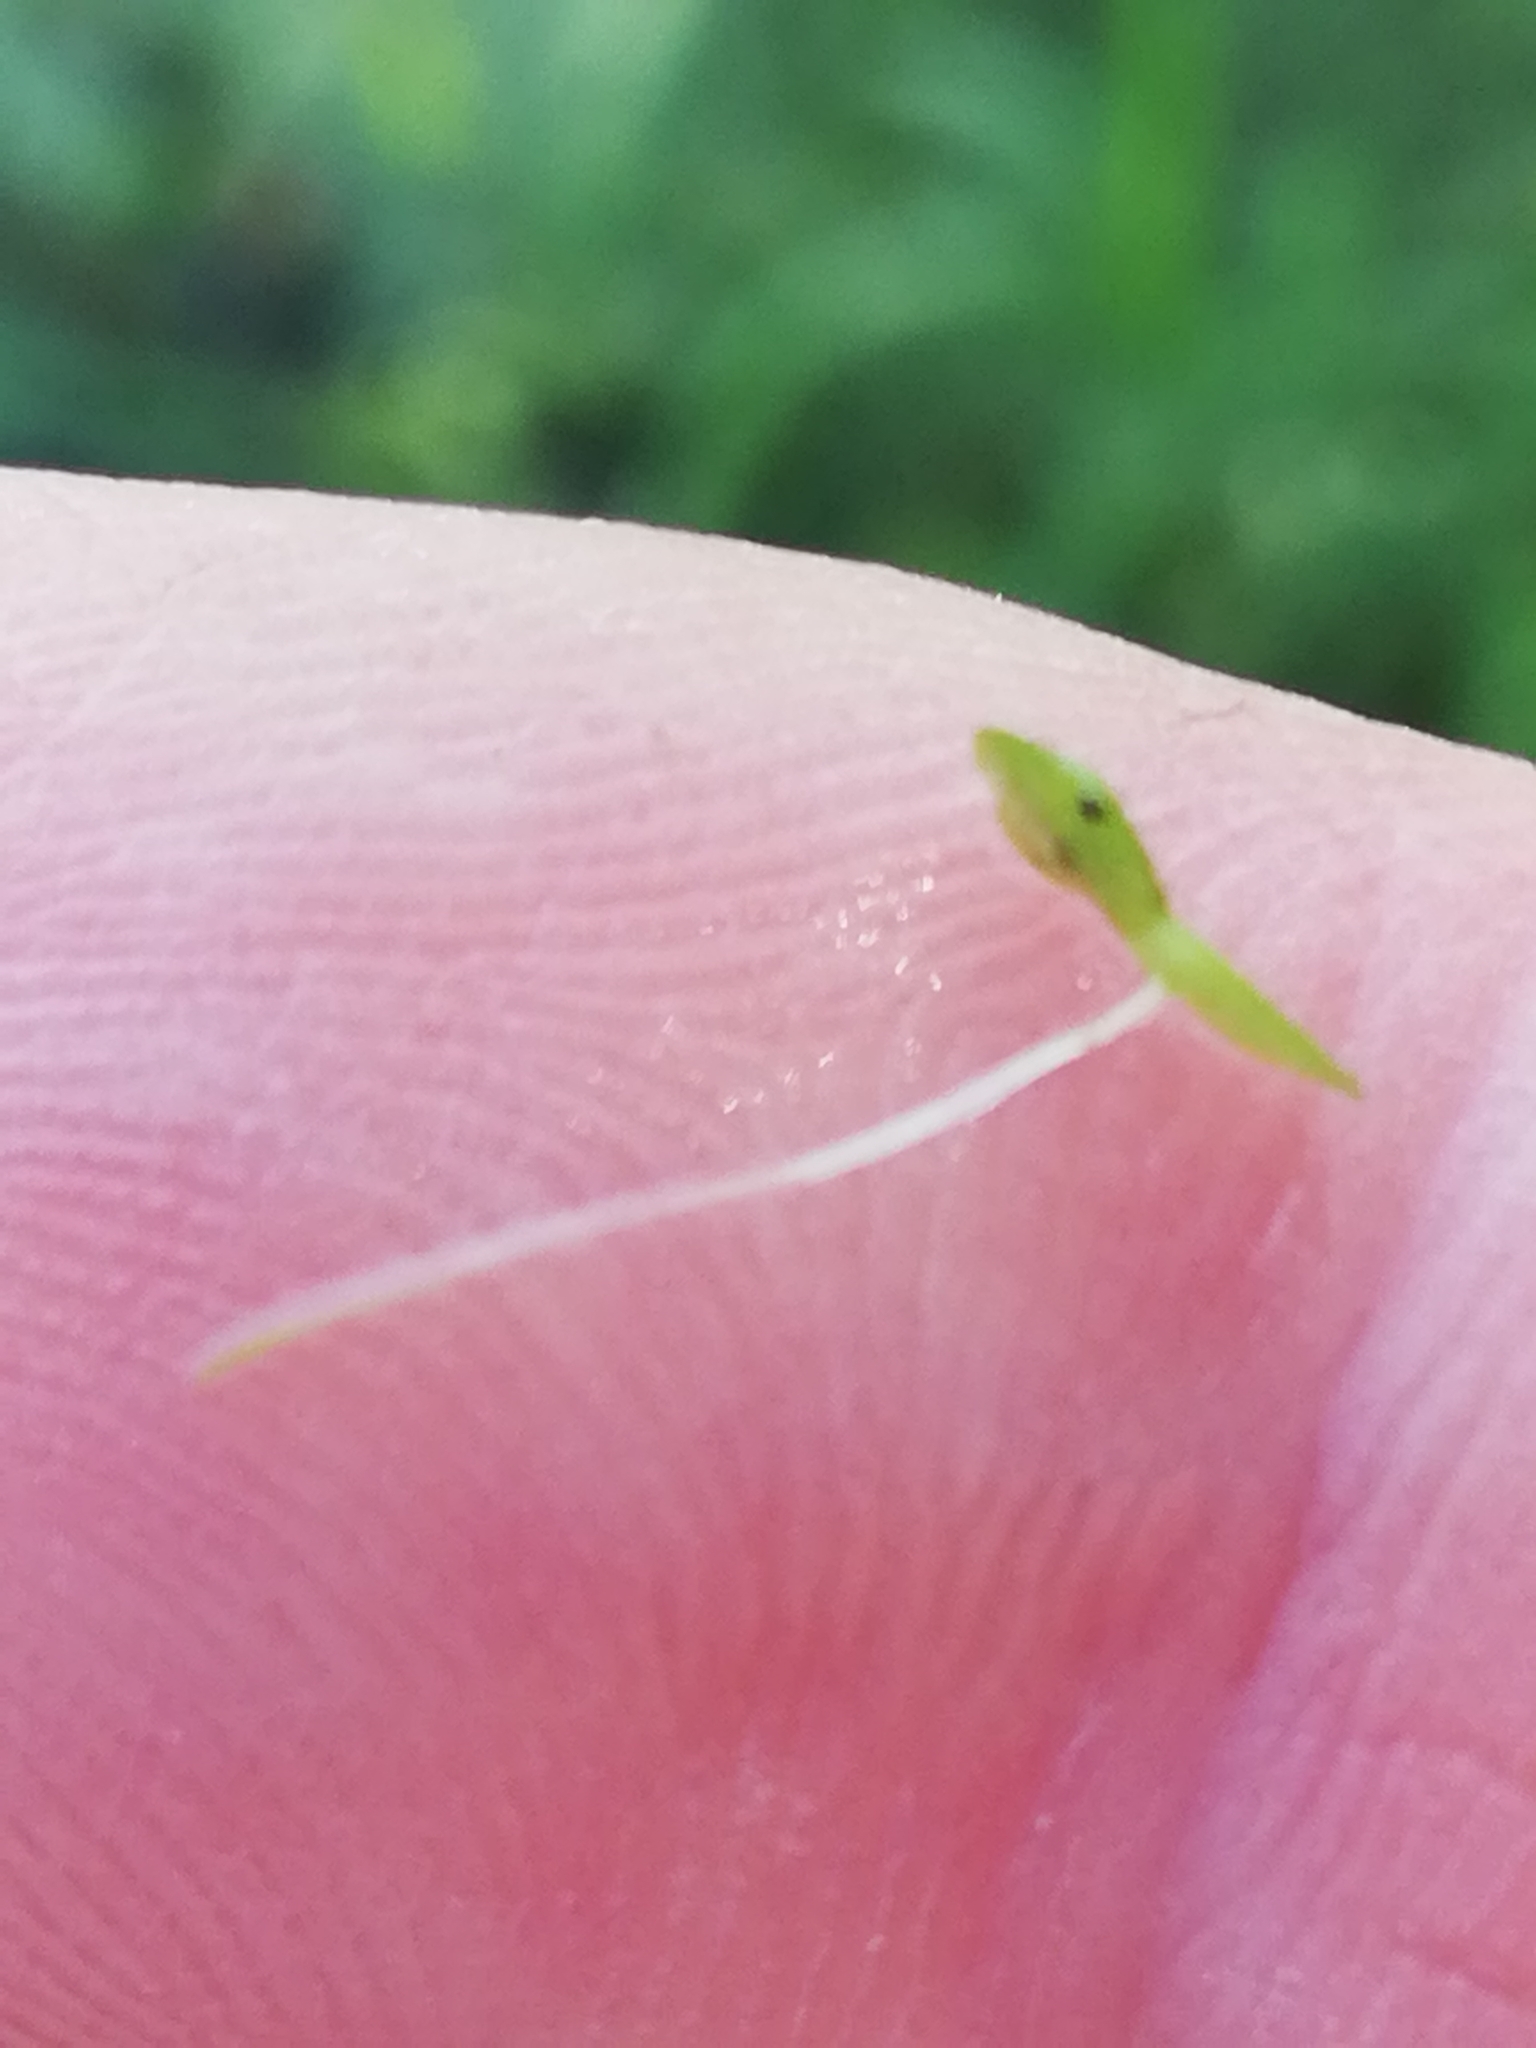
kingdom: Plantae
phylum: Tracheophyta
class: Liliopsida
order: Alismatales
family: Araceae
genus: Lemna
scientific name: Lemna minor
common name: Common duckweed
